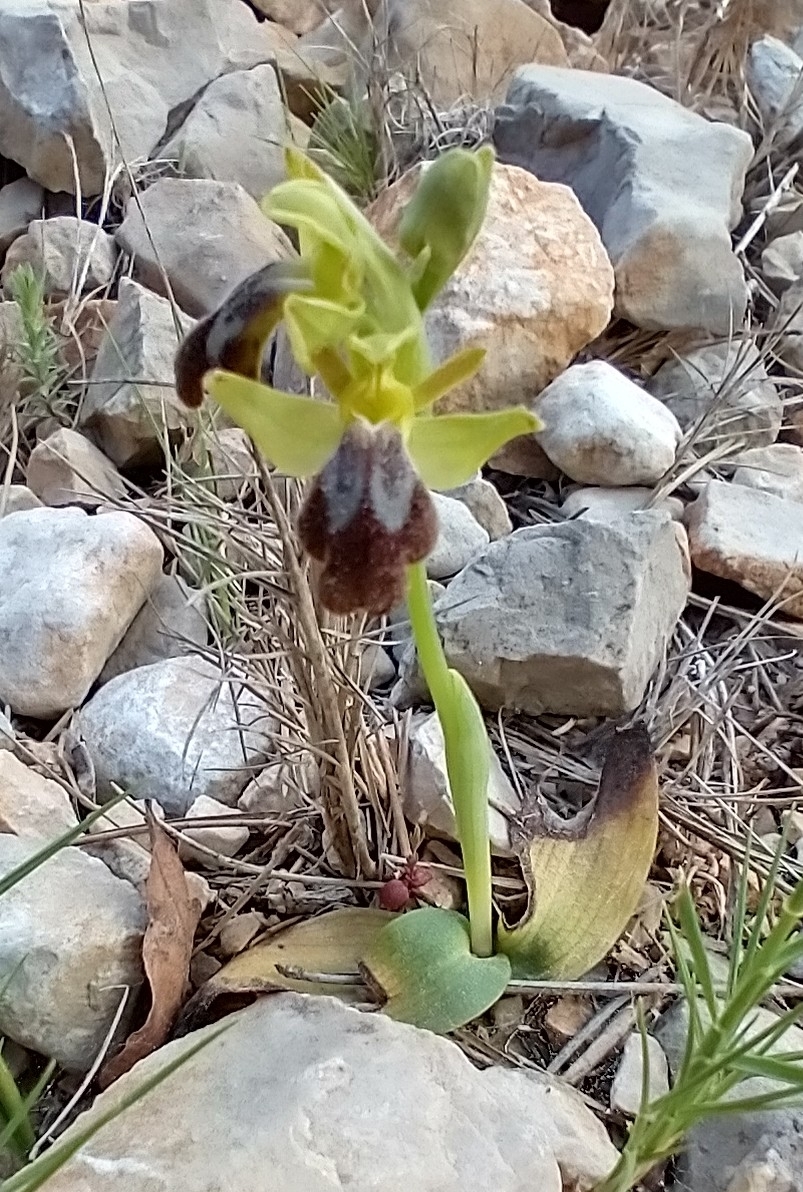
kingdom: Plantae
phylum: Tracheophyta
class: Liliopsida
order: Asparagales
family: Orchidaceae
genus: Ophrys
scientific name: Ophrys fusca
